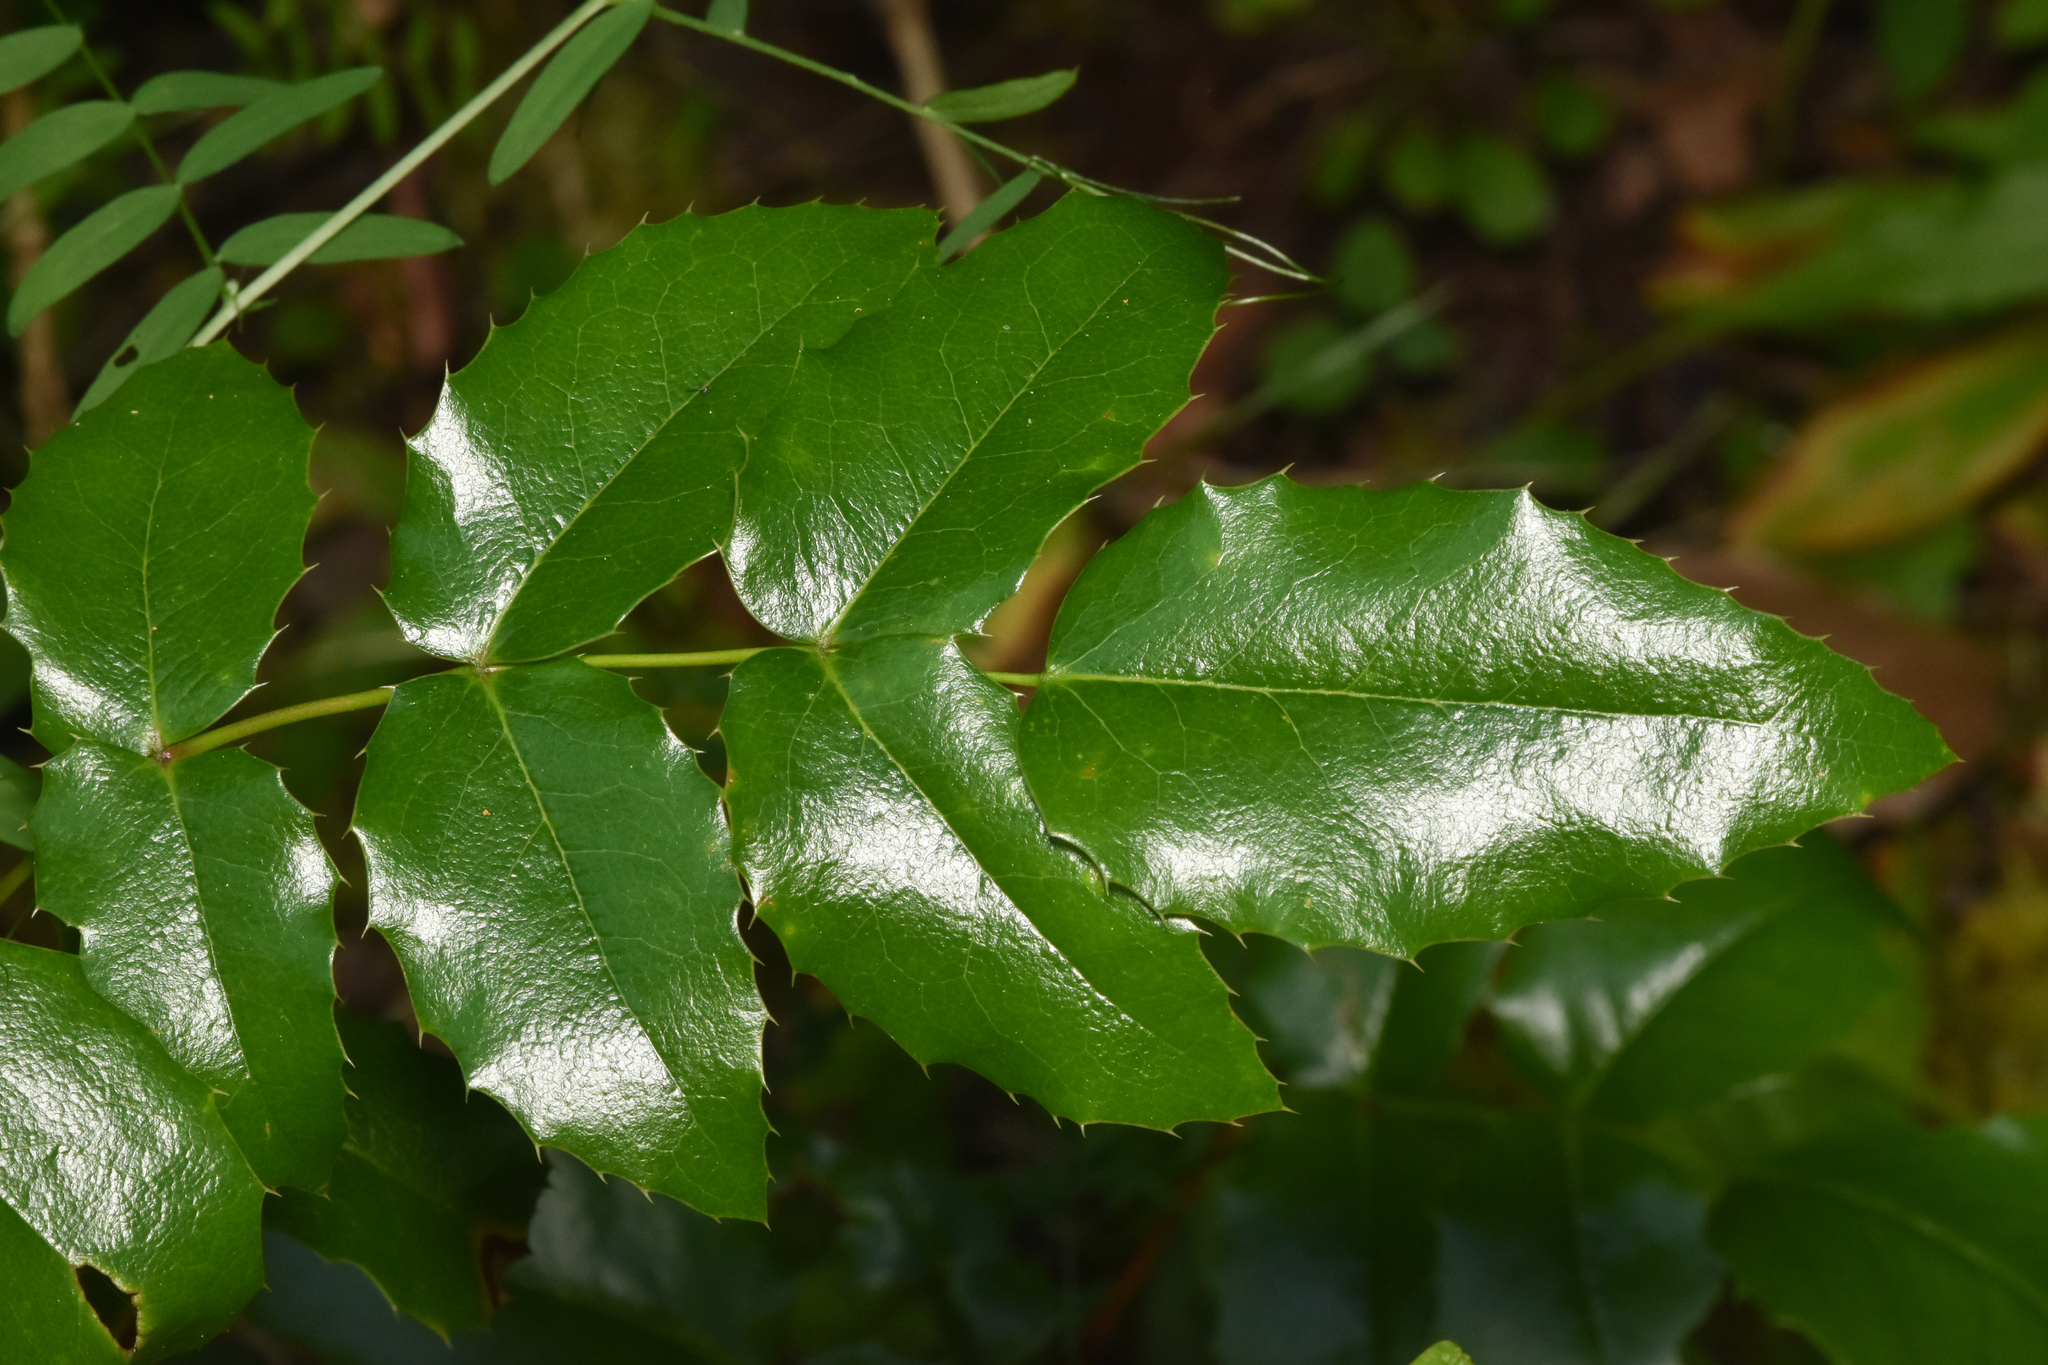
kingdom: Plantae
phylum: Tracheophyta
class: Magnoliopsida
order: Ranunculales
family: Berberidaceae
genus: Mahonia
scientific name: Mahonia aquifolium
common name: Oregon-grape
